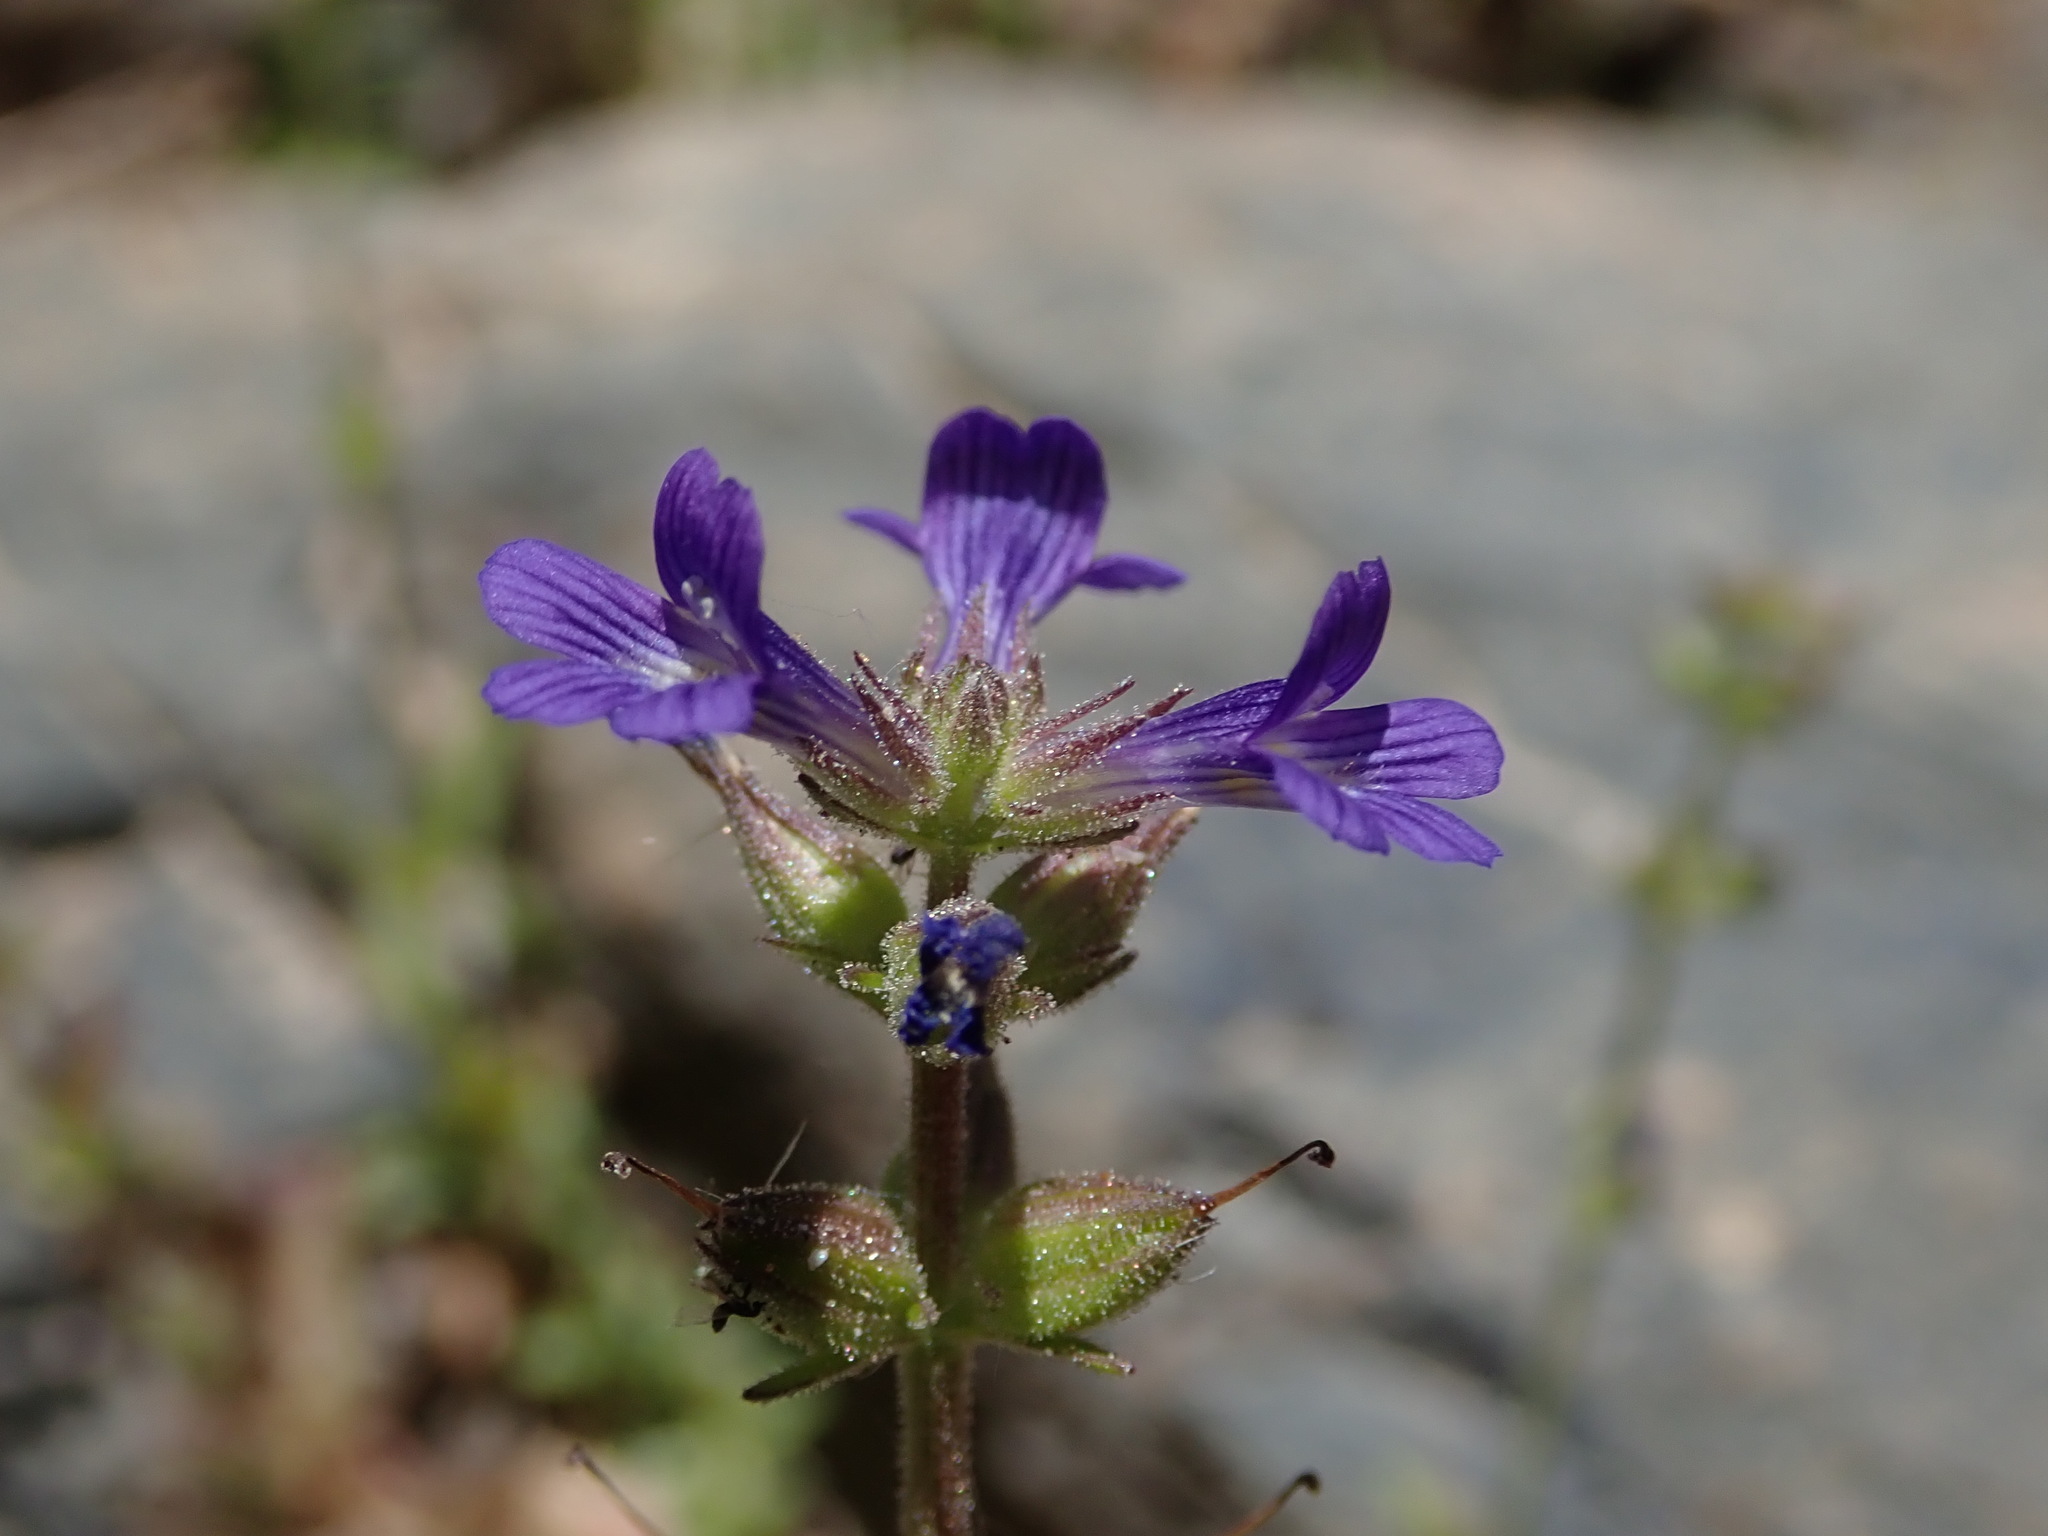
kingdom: Plantae
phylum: Tracheophyta
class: Magnoliopsida
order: Lamiales
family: Plantaginaceae
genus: Stemodia
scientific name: Stemodia durantifolia
